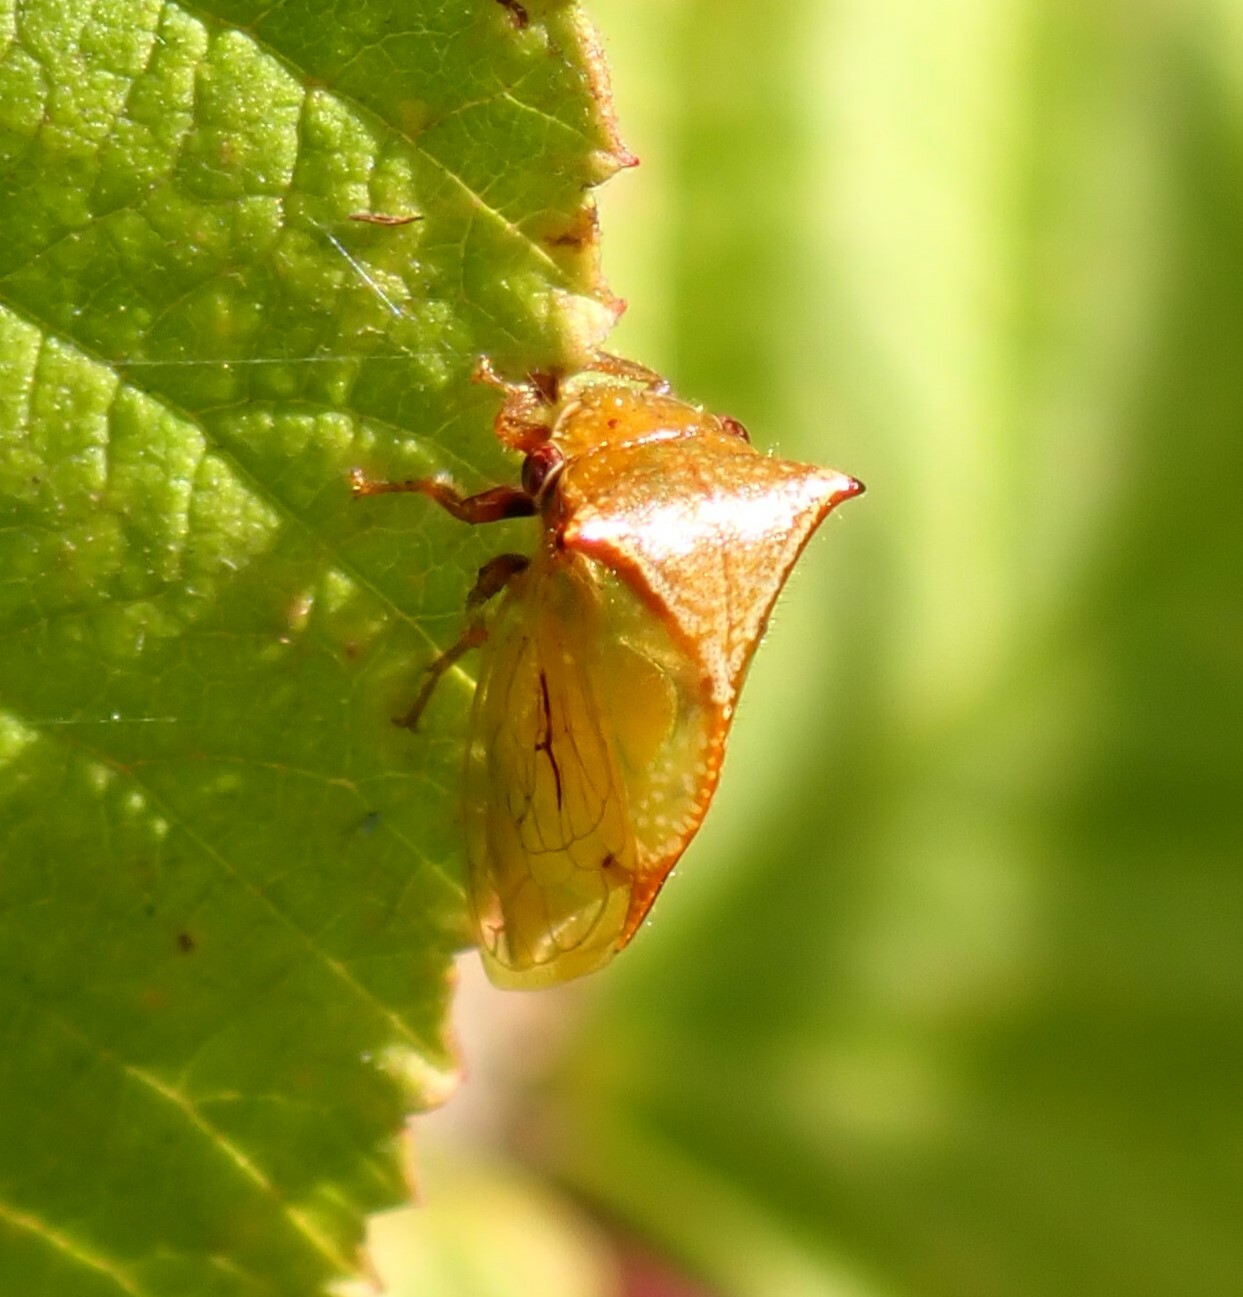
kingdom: Animalia
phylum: Arthropoda
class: Insecta
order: Hemiptera
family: Membracidae
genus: Stictocephala
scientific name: Stictocephala basalis
